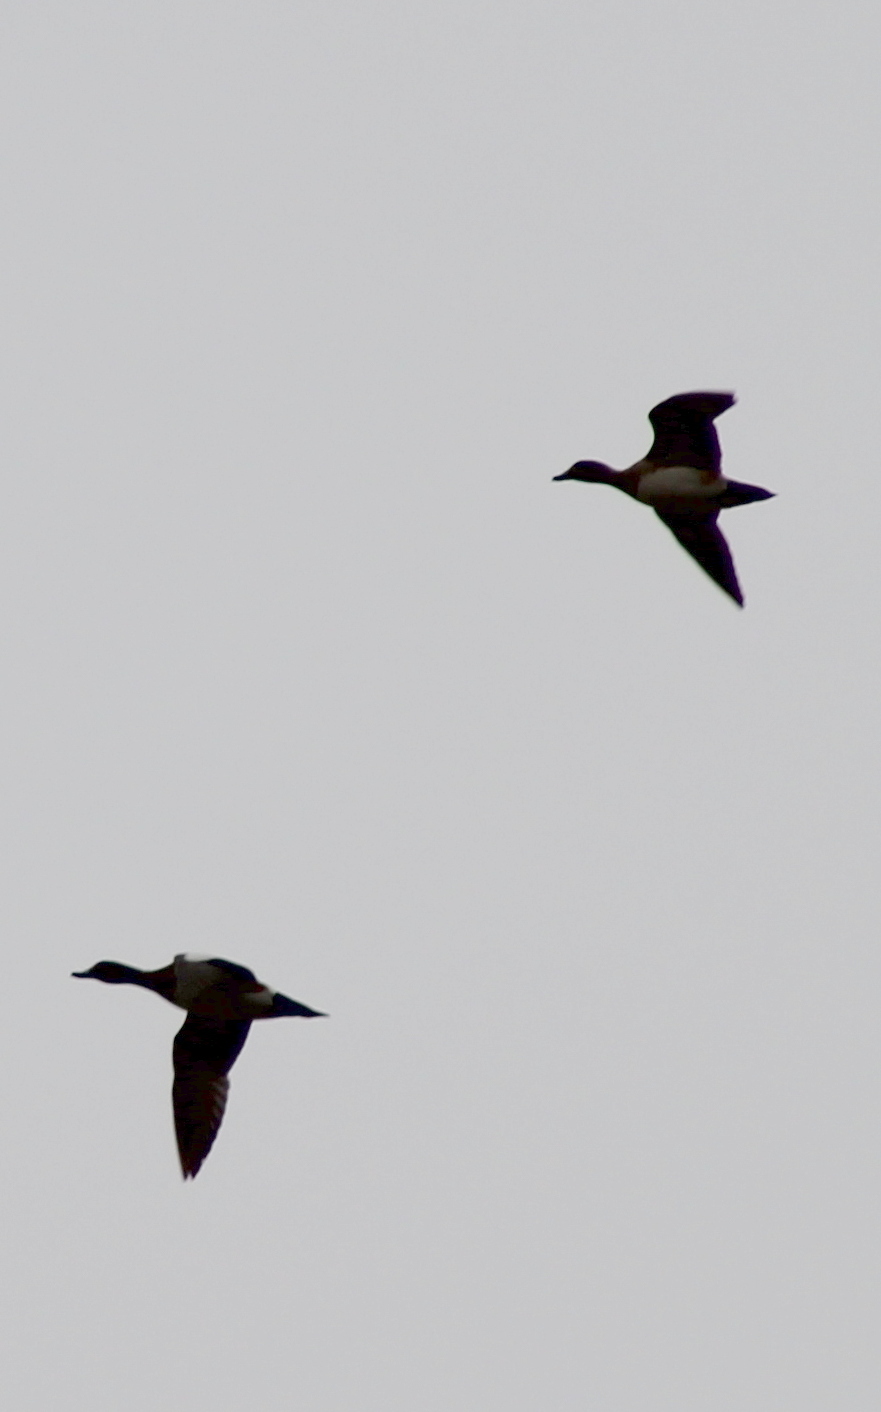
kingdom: Animalia
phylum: Chordata
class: Aves
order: Anseriformes
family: Anatidae
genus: Mareca
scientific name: Mareca americana
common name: American wigeon
